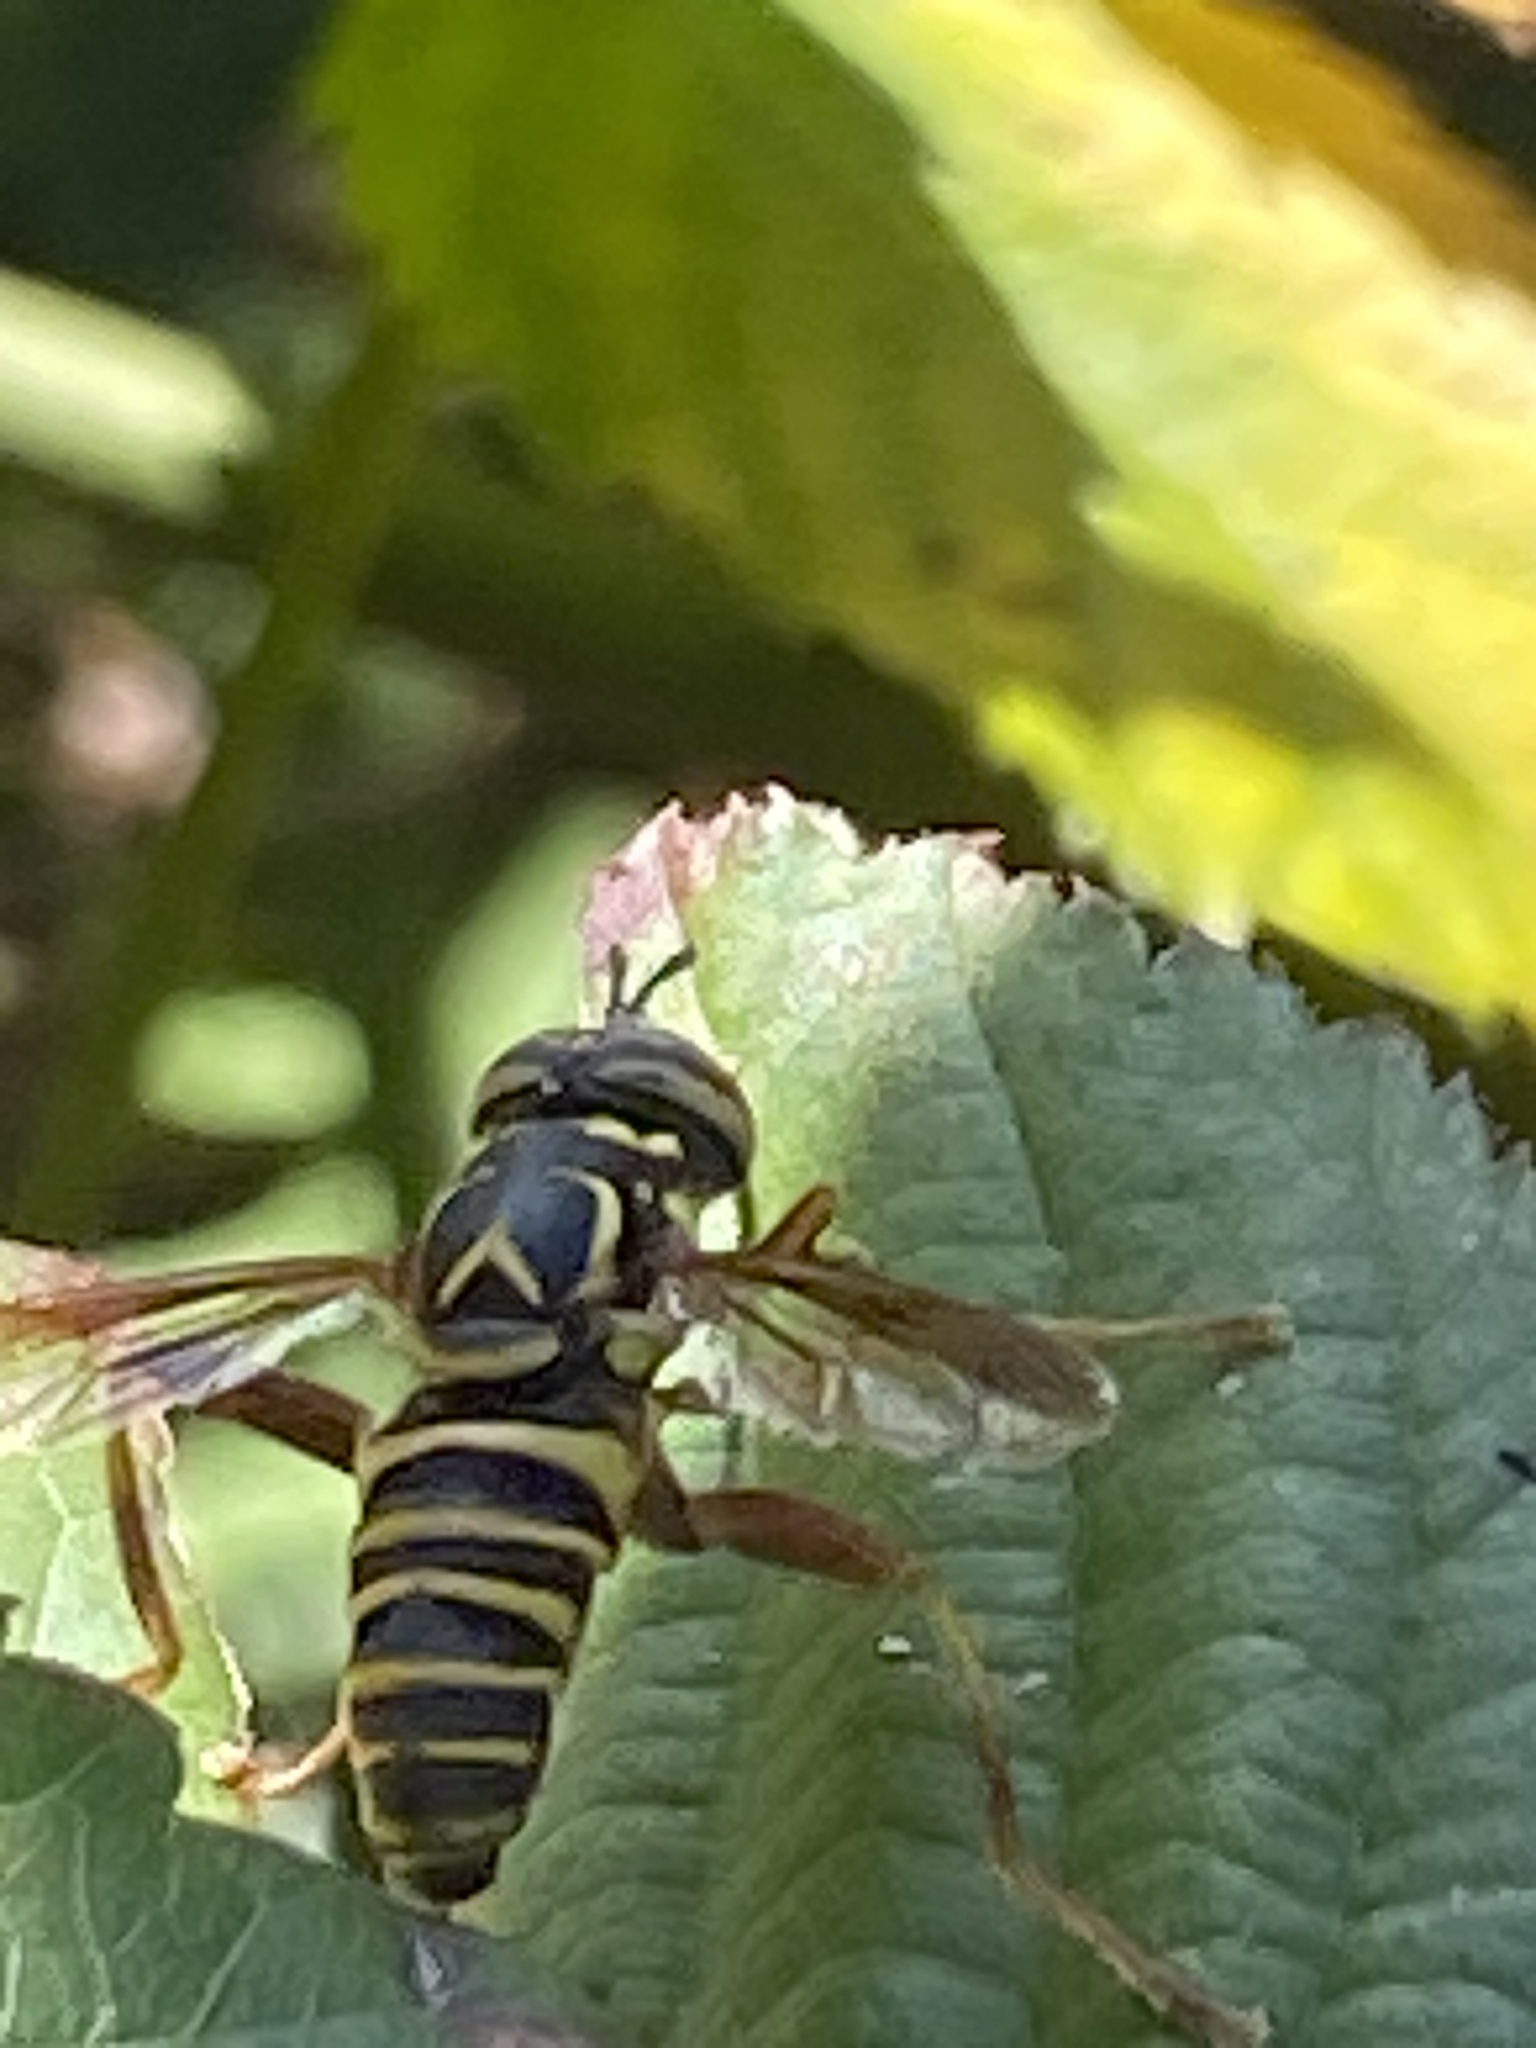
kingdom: Animalia
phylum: Arthropoda
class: Insecta
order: Diptera
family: Syrphidae
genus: Spilomyia
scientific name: Spilomyia longicornis
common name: Eastern hornet fly
